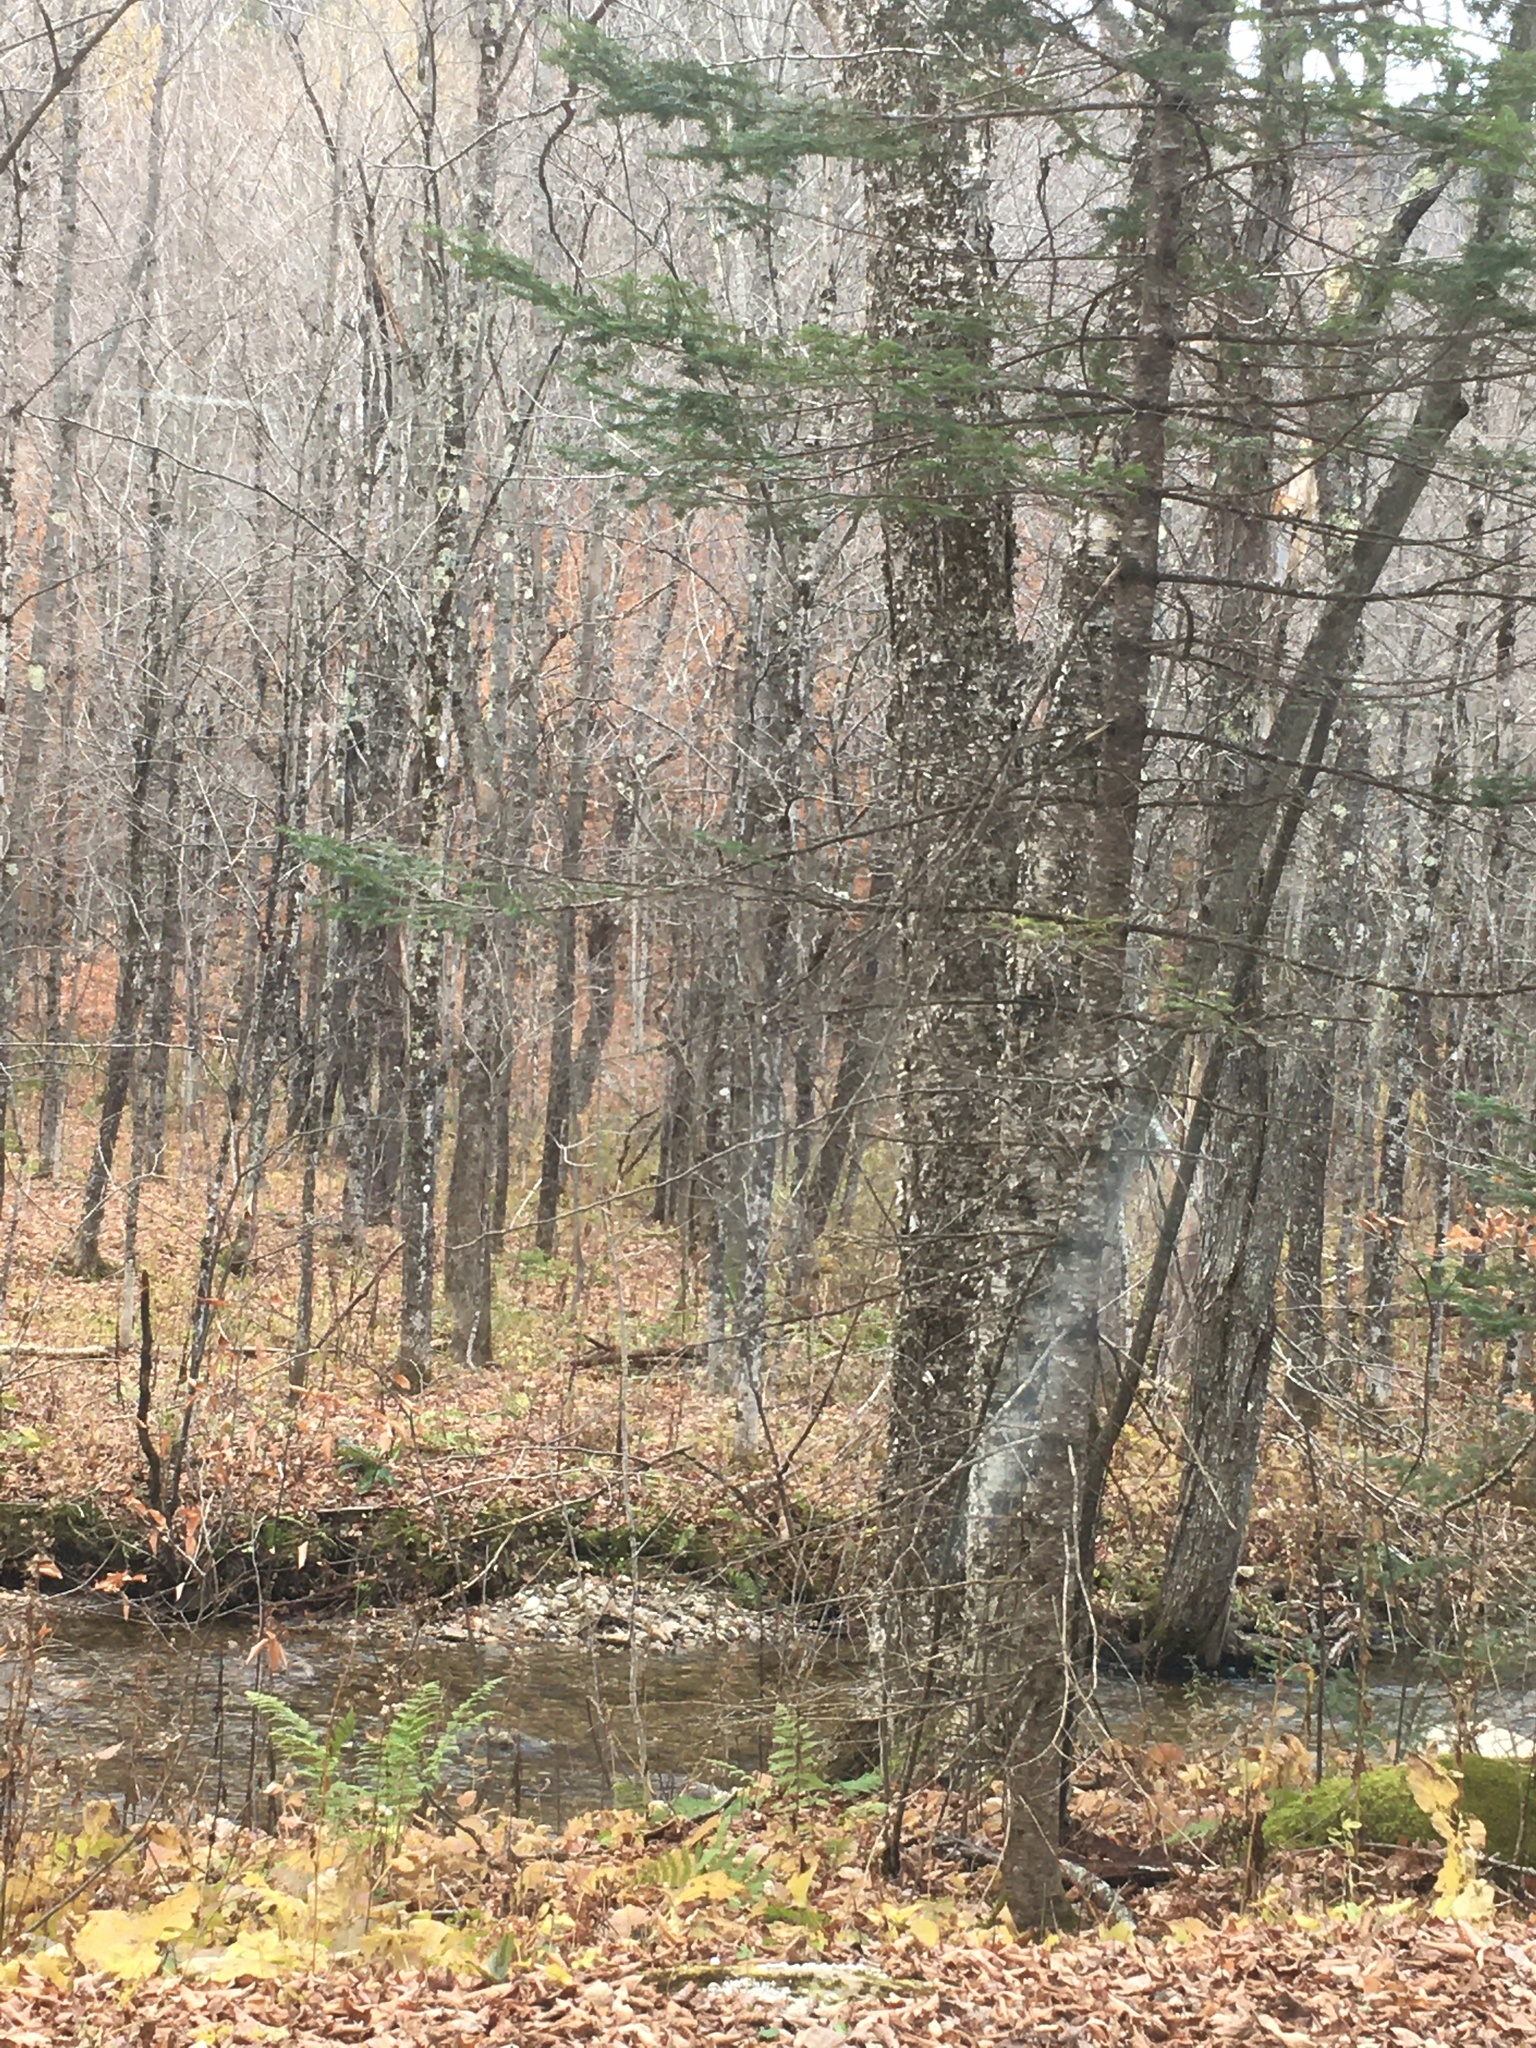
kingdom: Plantae
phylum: Tracheophyta
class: Magnoliopsida
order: Fagales
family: Betulaceae
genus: Betula
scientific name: Betula alleghaniensis
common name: Yellow birch
